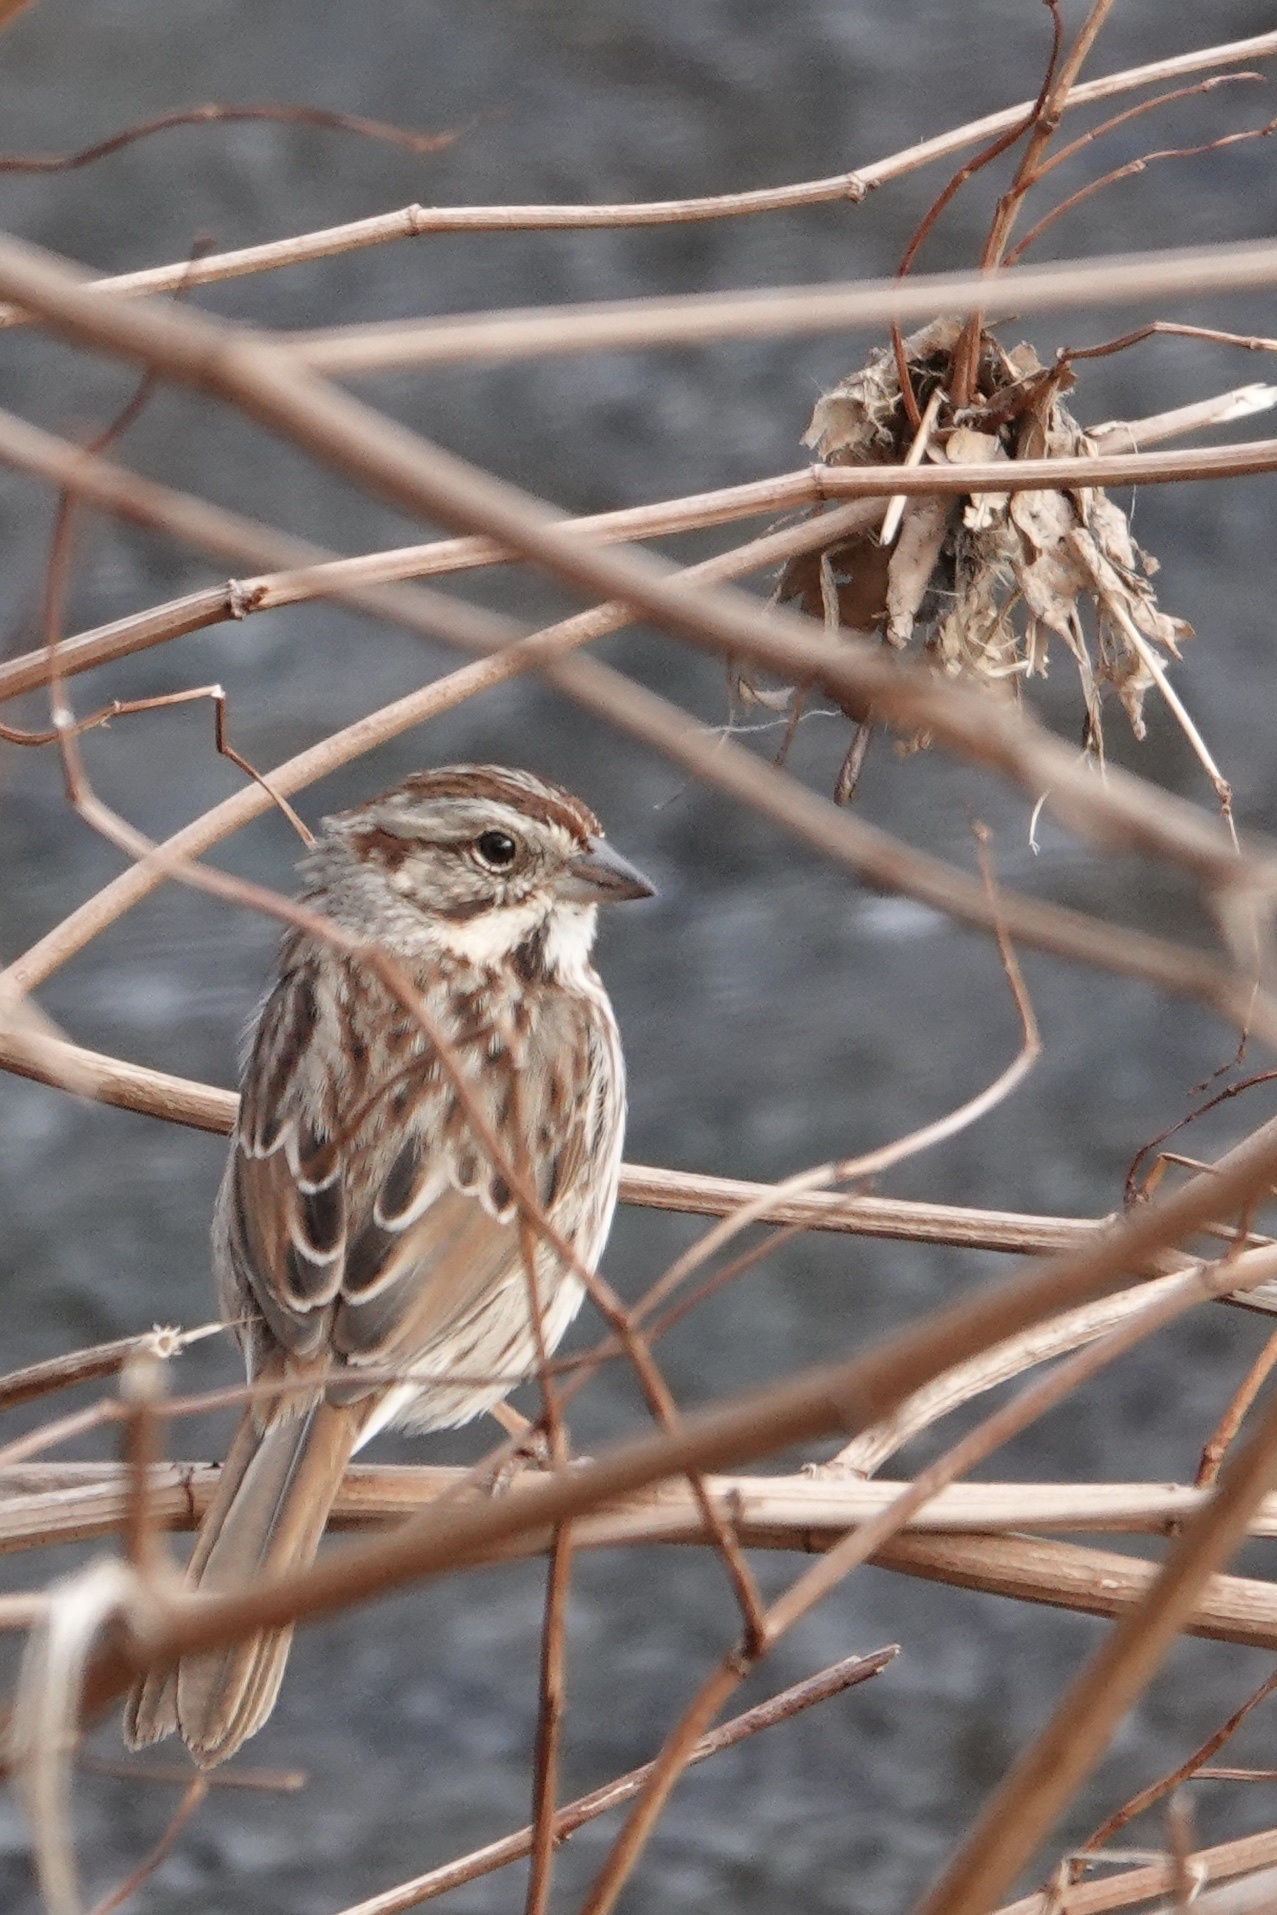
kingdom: Animalia
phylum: Chordata
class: Aves
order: Passeriformes
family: Passerellidae
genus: Melospiza
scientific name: Melospiza melodia
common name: Song sparrow
